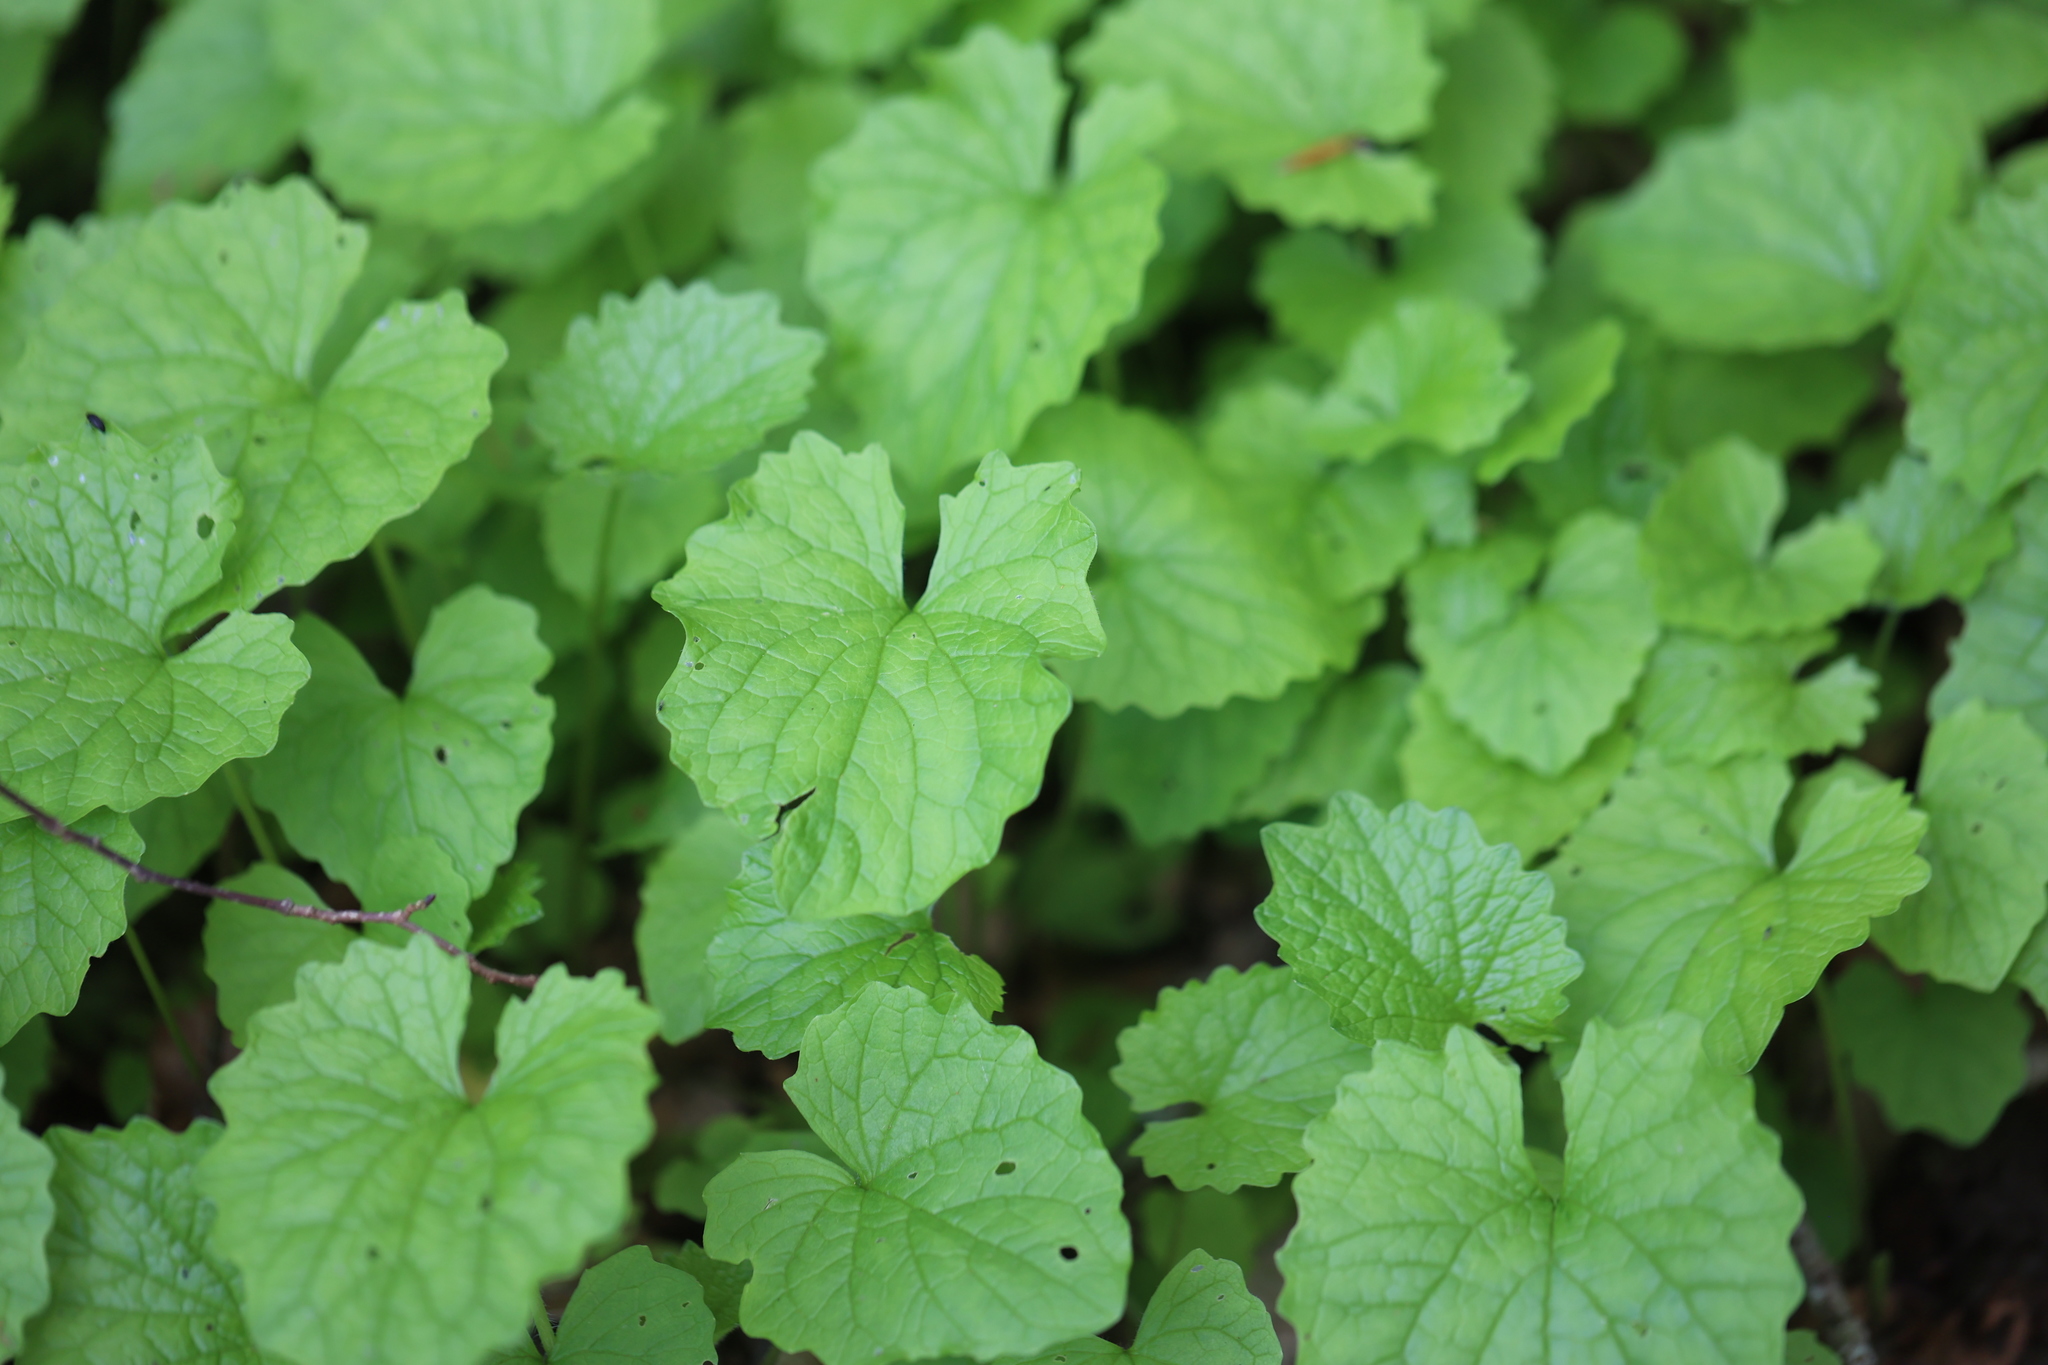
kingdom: Plantae
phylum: Tracheophyta
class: Magnoliopsida
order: Brassicales
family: Brassicaceae
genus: Alliaria
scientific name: Alliaria petiolata
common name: Garlic mustard
